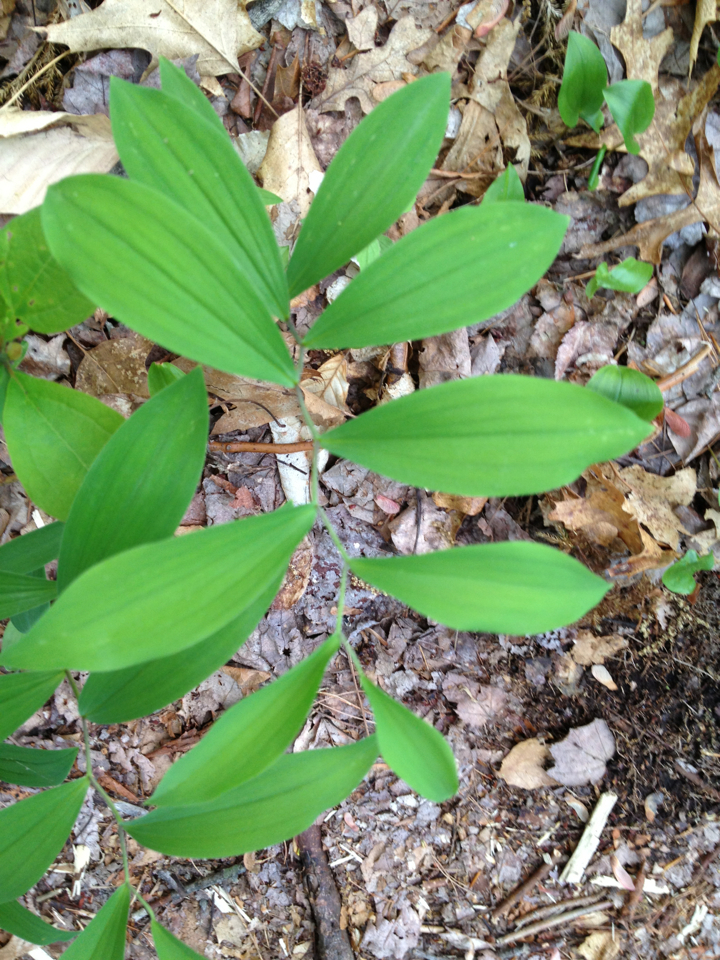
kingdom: Plantae
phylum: Tracheophyta
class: Liliopsida
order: Liliales
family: Colchicaceae
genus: Uvularia
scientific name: Uvularia sessilifolia
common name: Straw-lily
